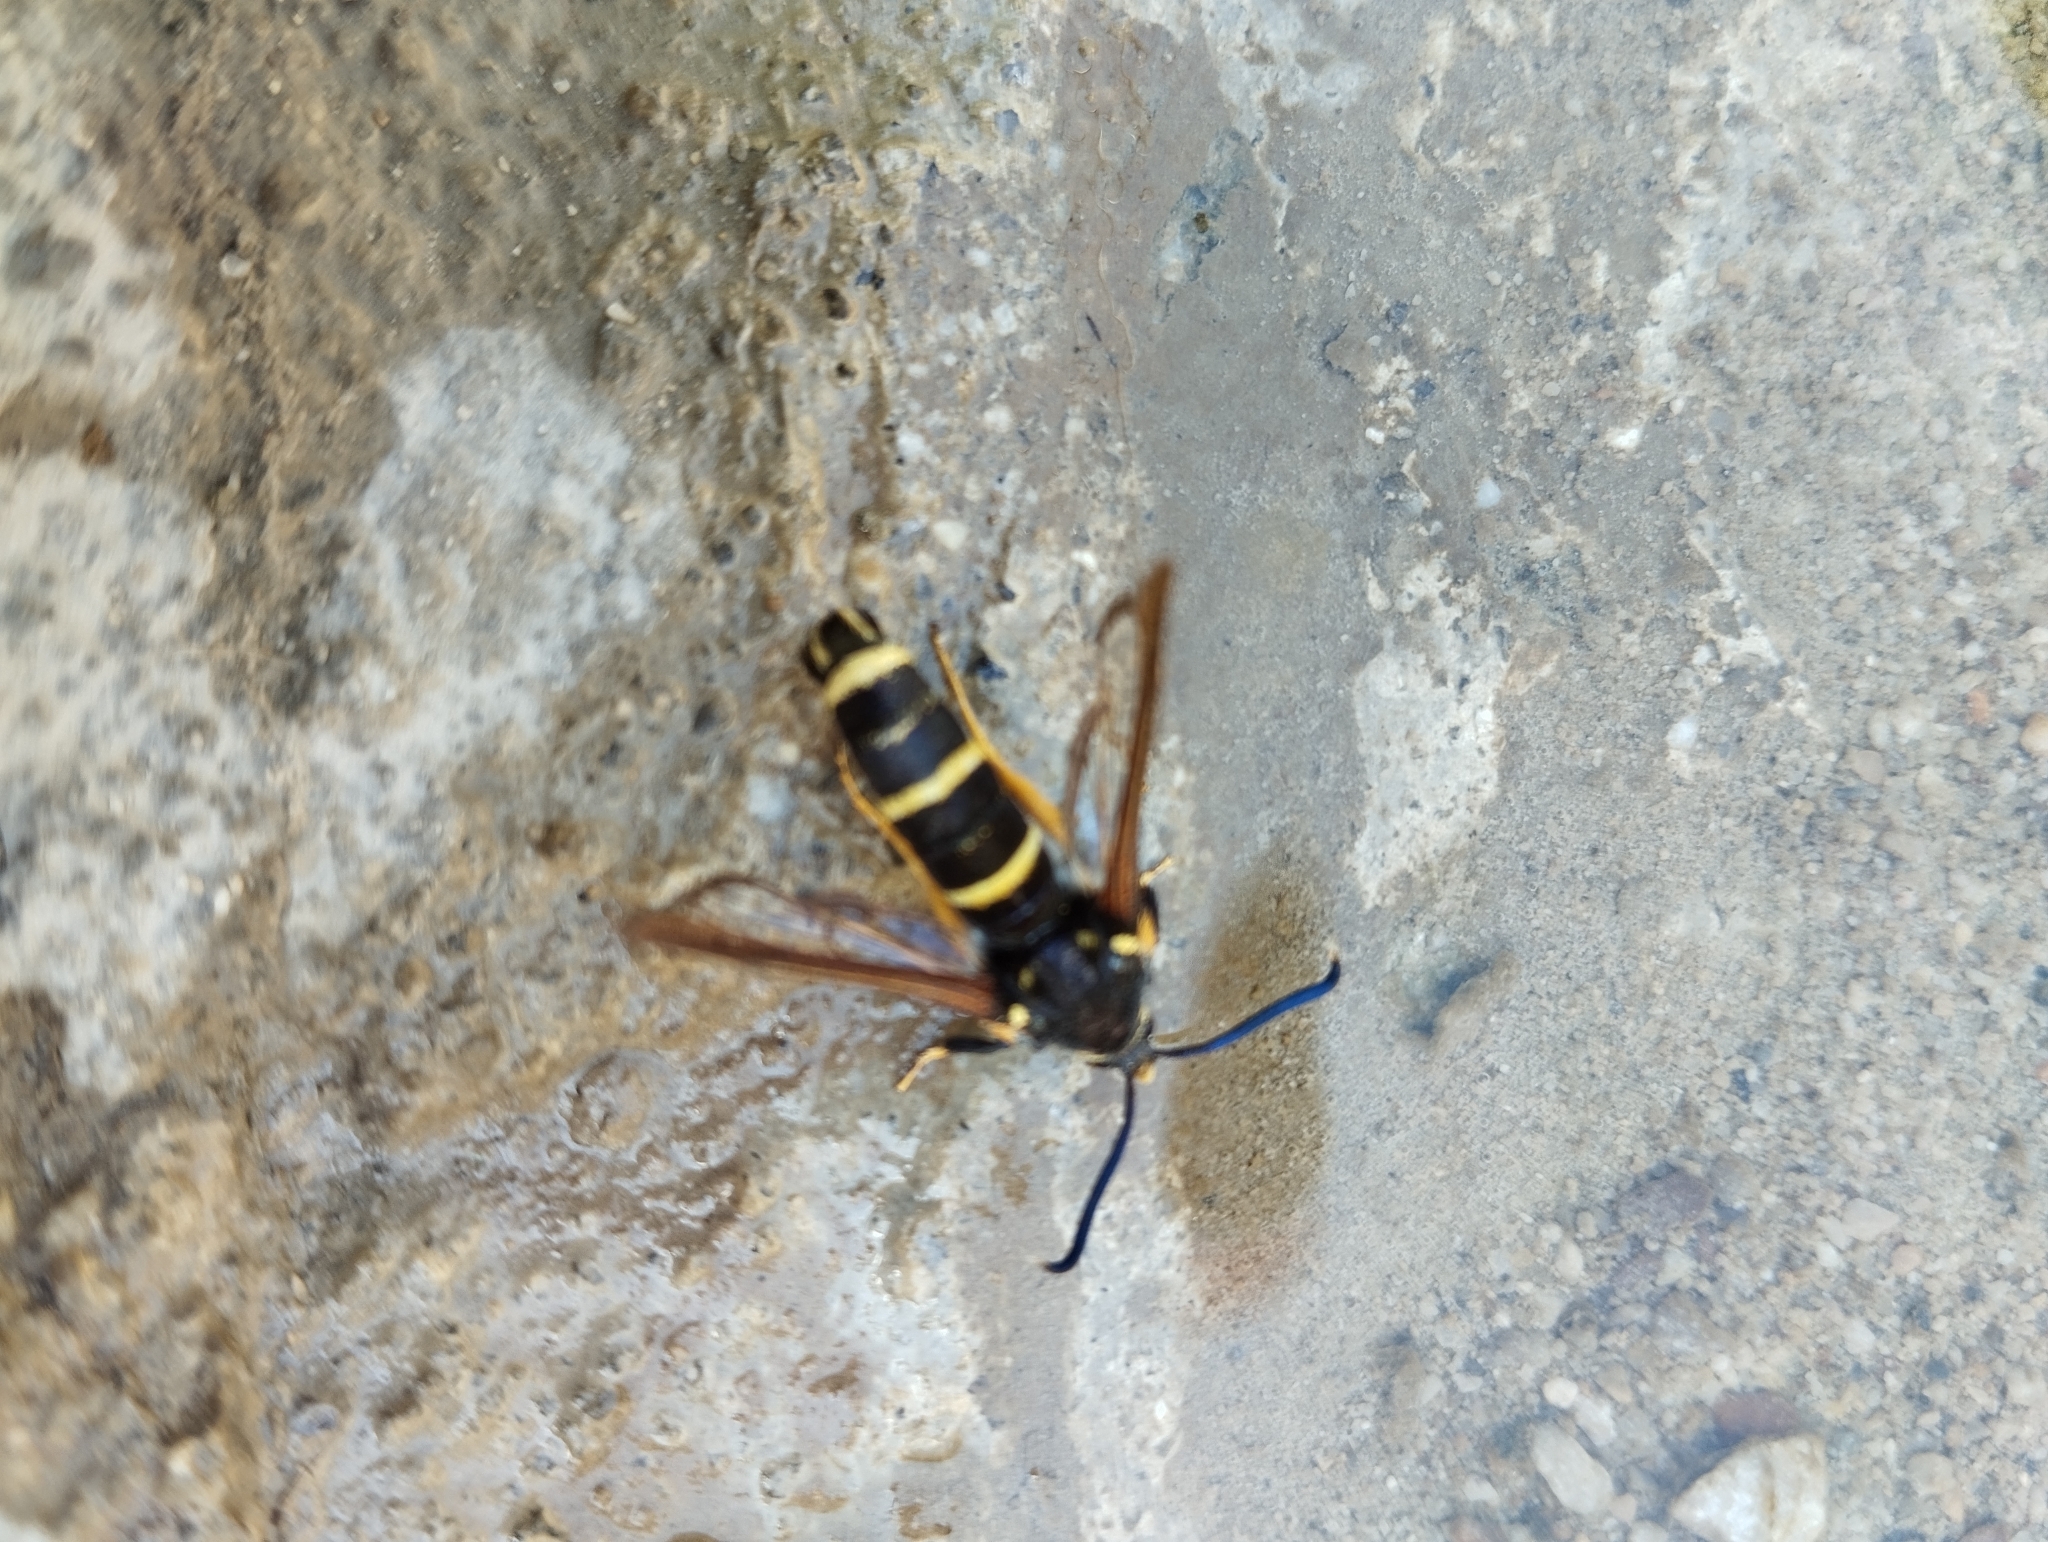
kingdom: Animalia
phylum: Arthropoda
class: Insecta
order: Lepidoptera
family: Sesiidae
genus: Paranthrene
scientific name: Paranthrene tabaniformis
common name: Dusky clearwing
